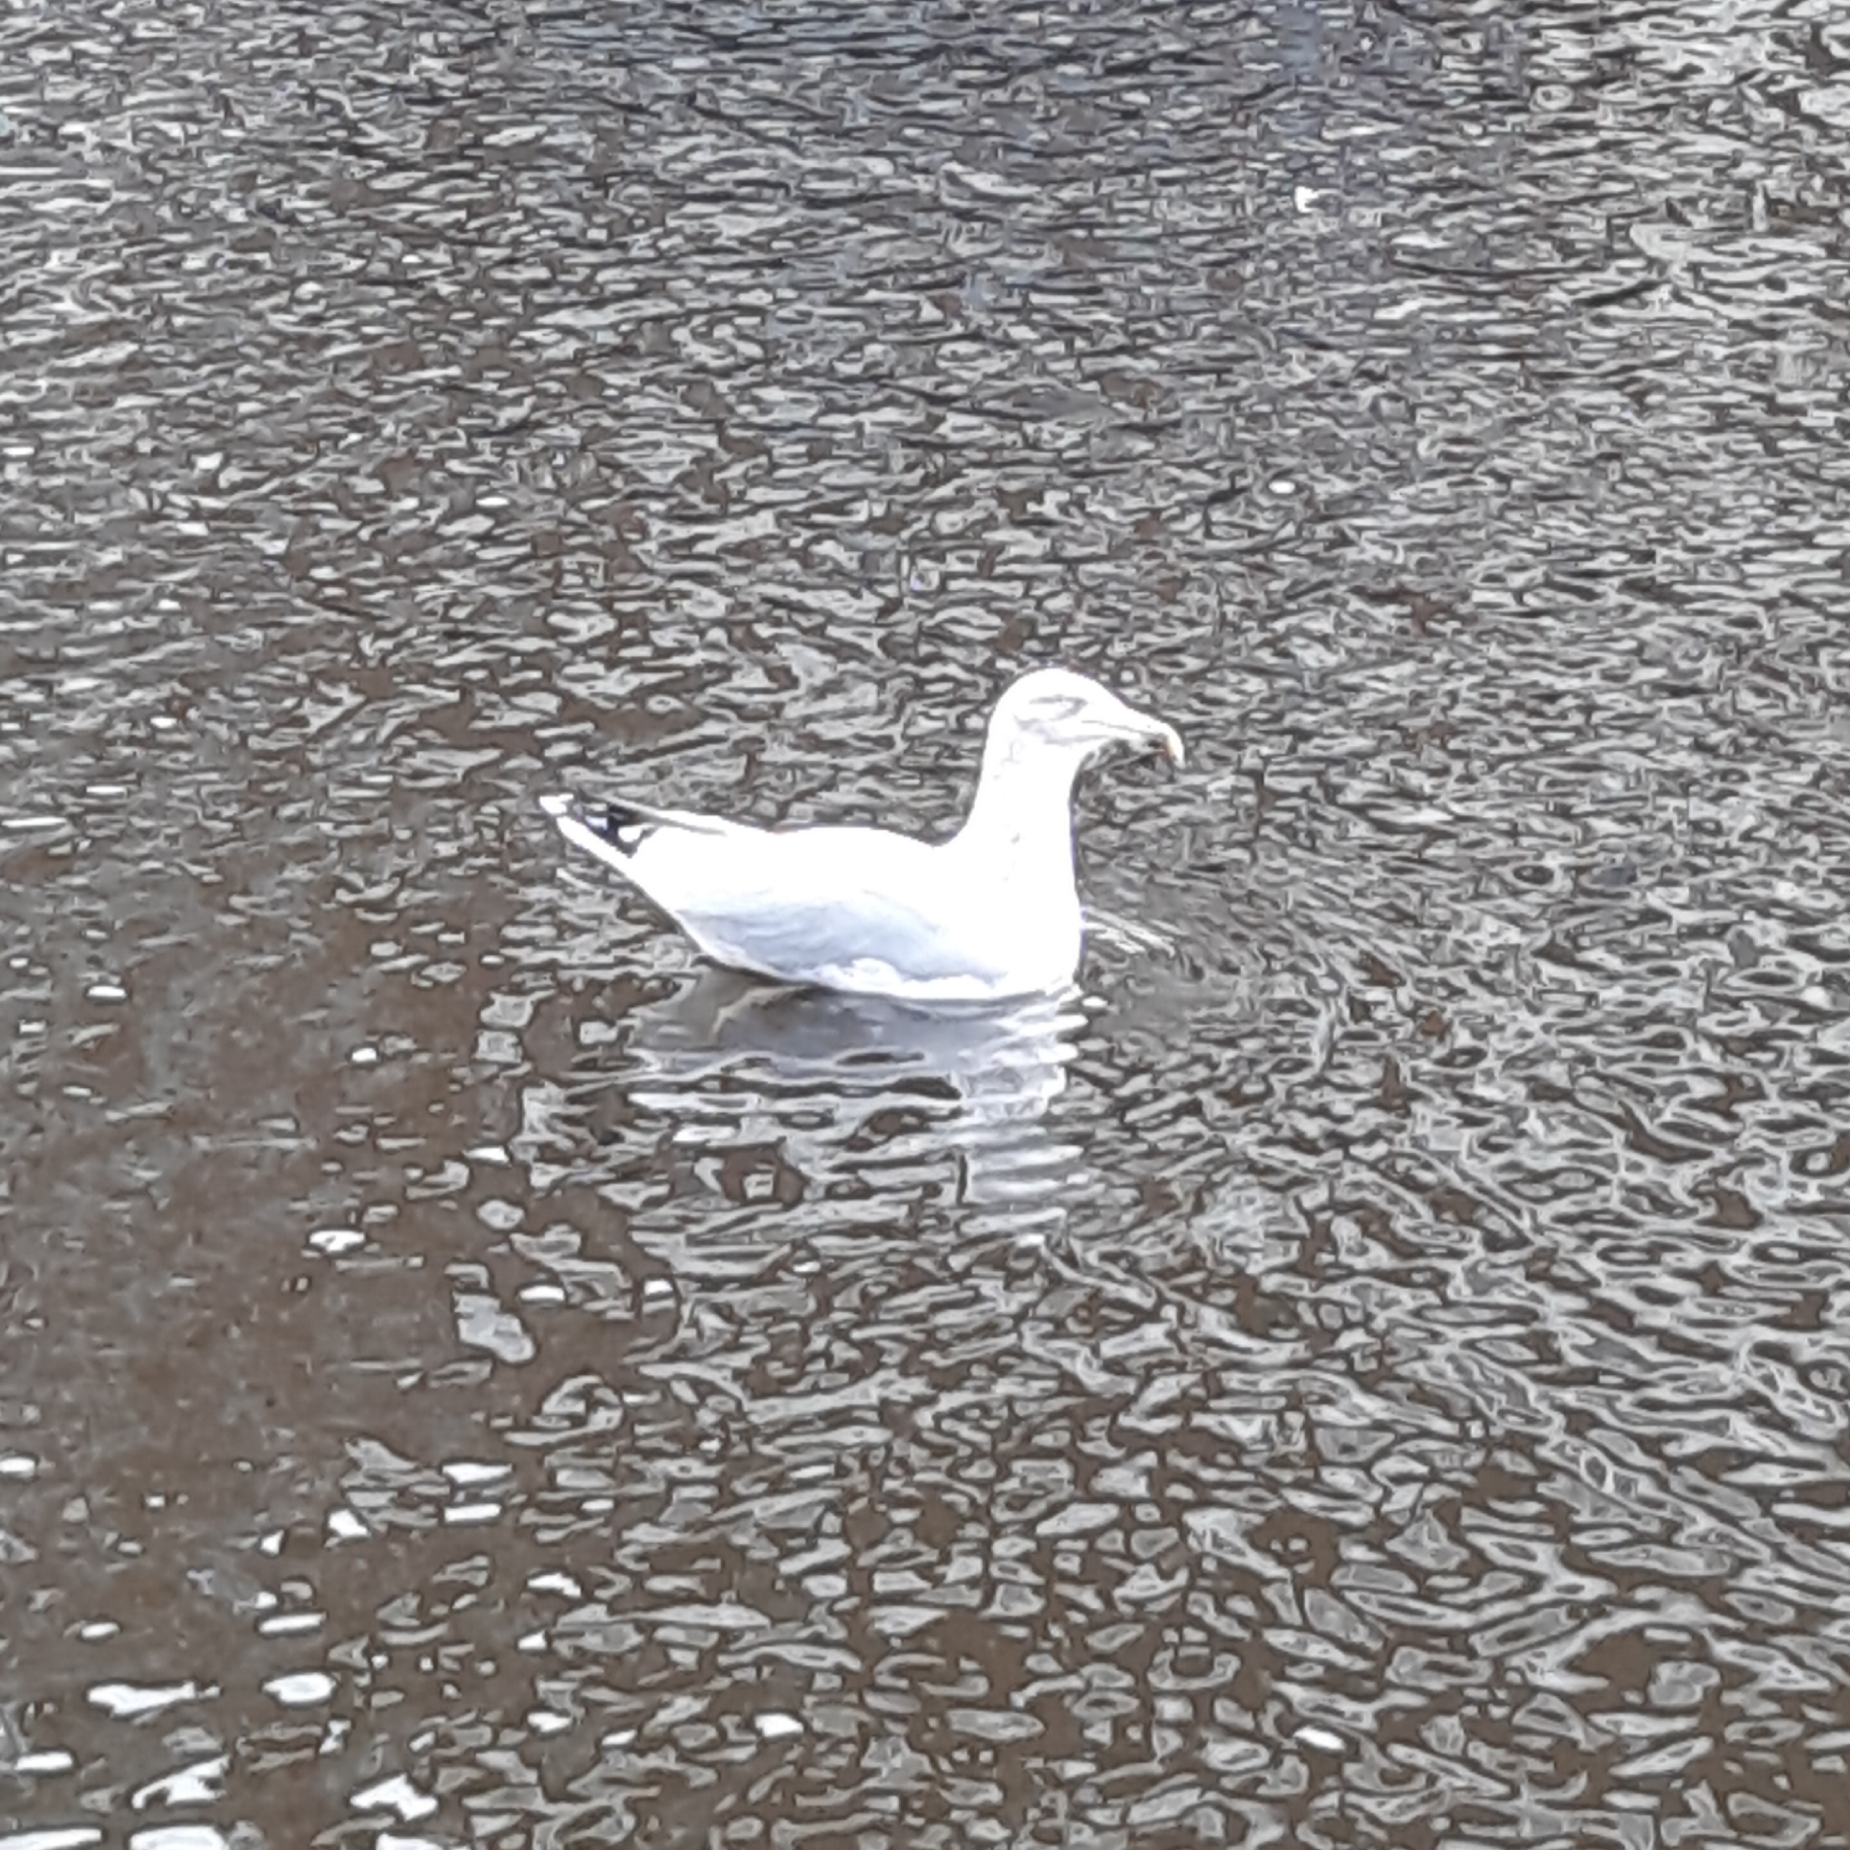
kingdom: Animalia
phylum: Chordata
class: Aves
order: Charadriiformes
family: Laridae
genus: Larus
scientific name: Larus argentatus
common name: Herring gull
